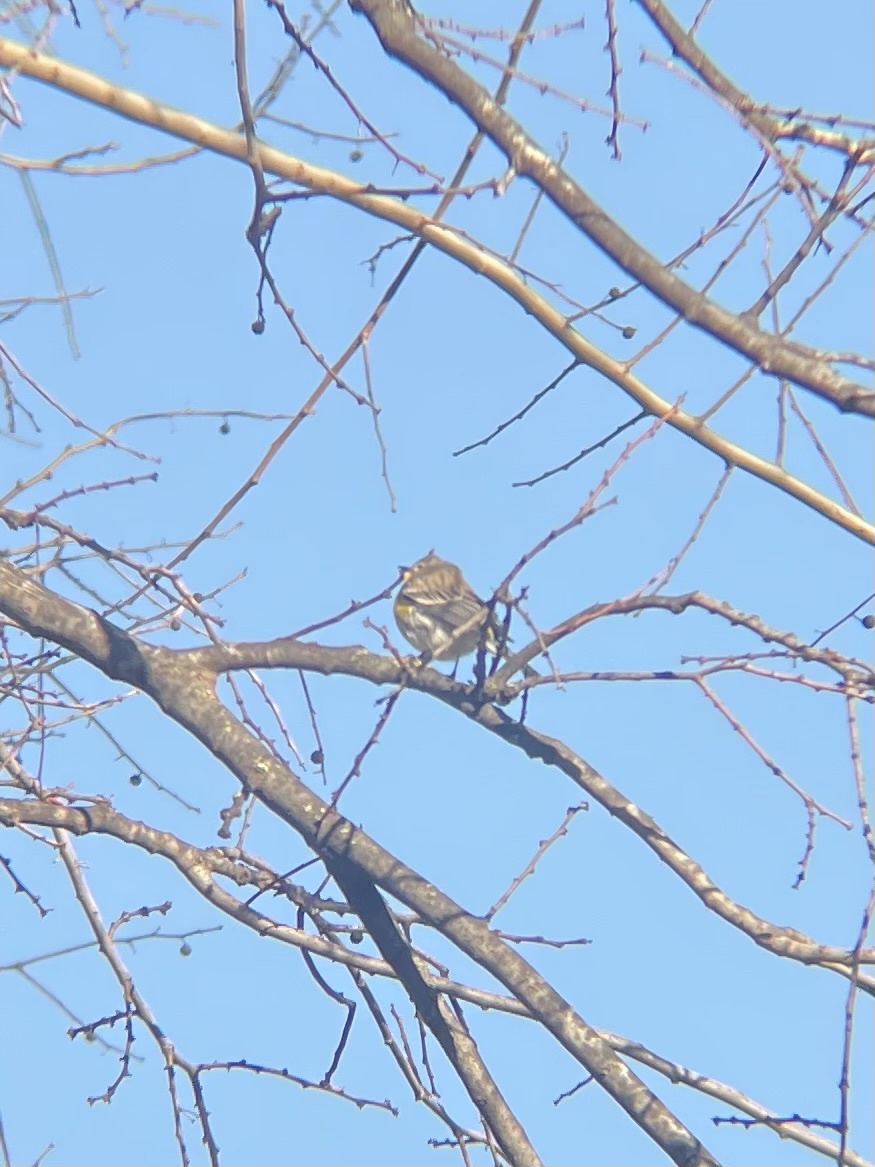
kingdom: Animalia
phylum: Chordata
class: Aves
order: Passeriformes
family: Parulidae
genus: Setophaga
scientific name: Setophaga coronata
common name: Myrtle warbler
